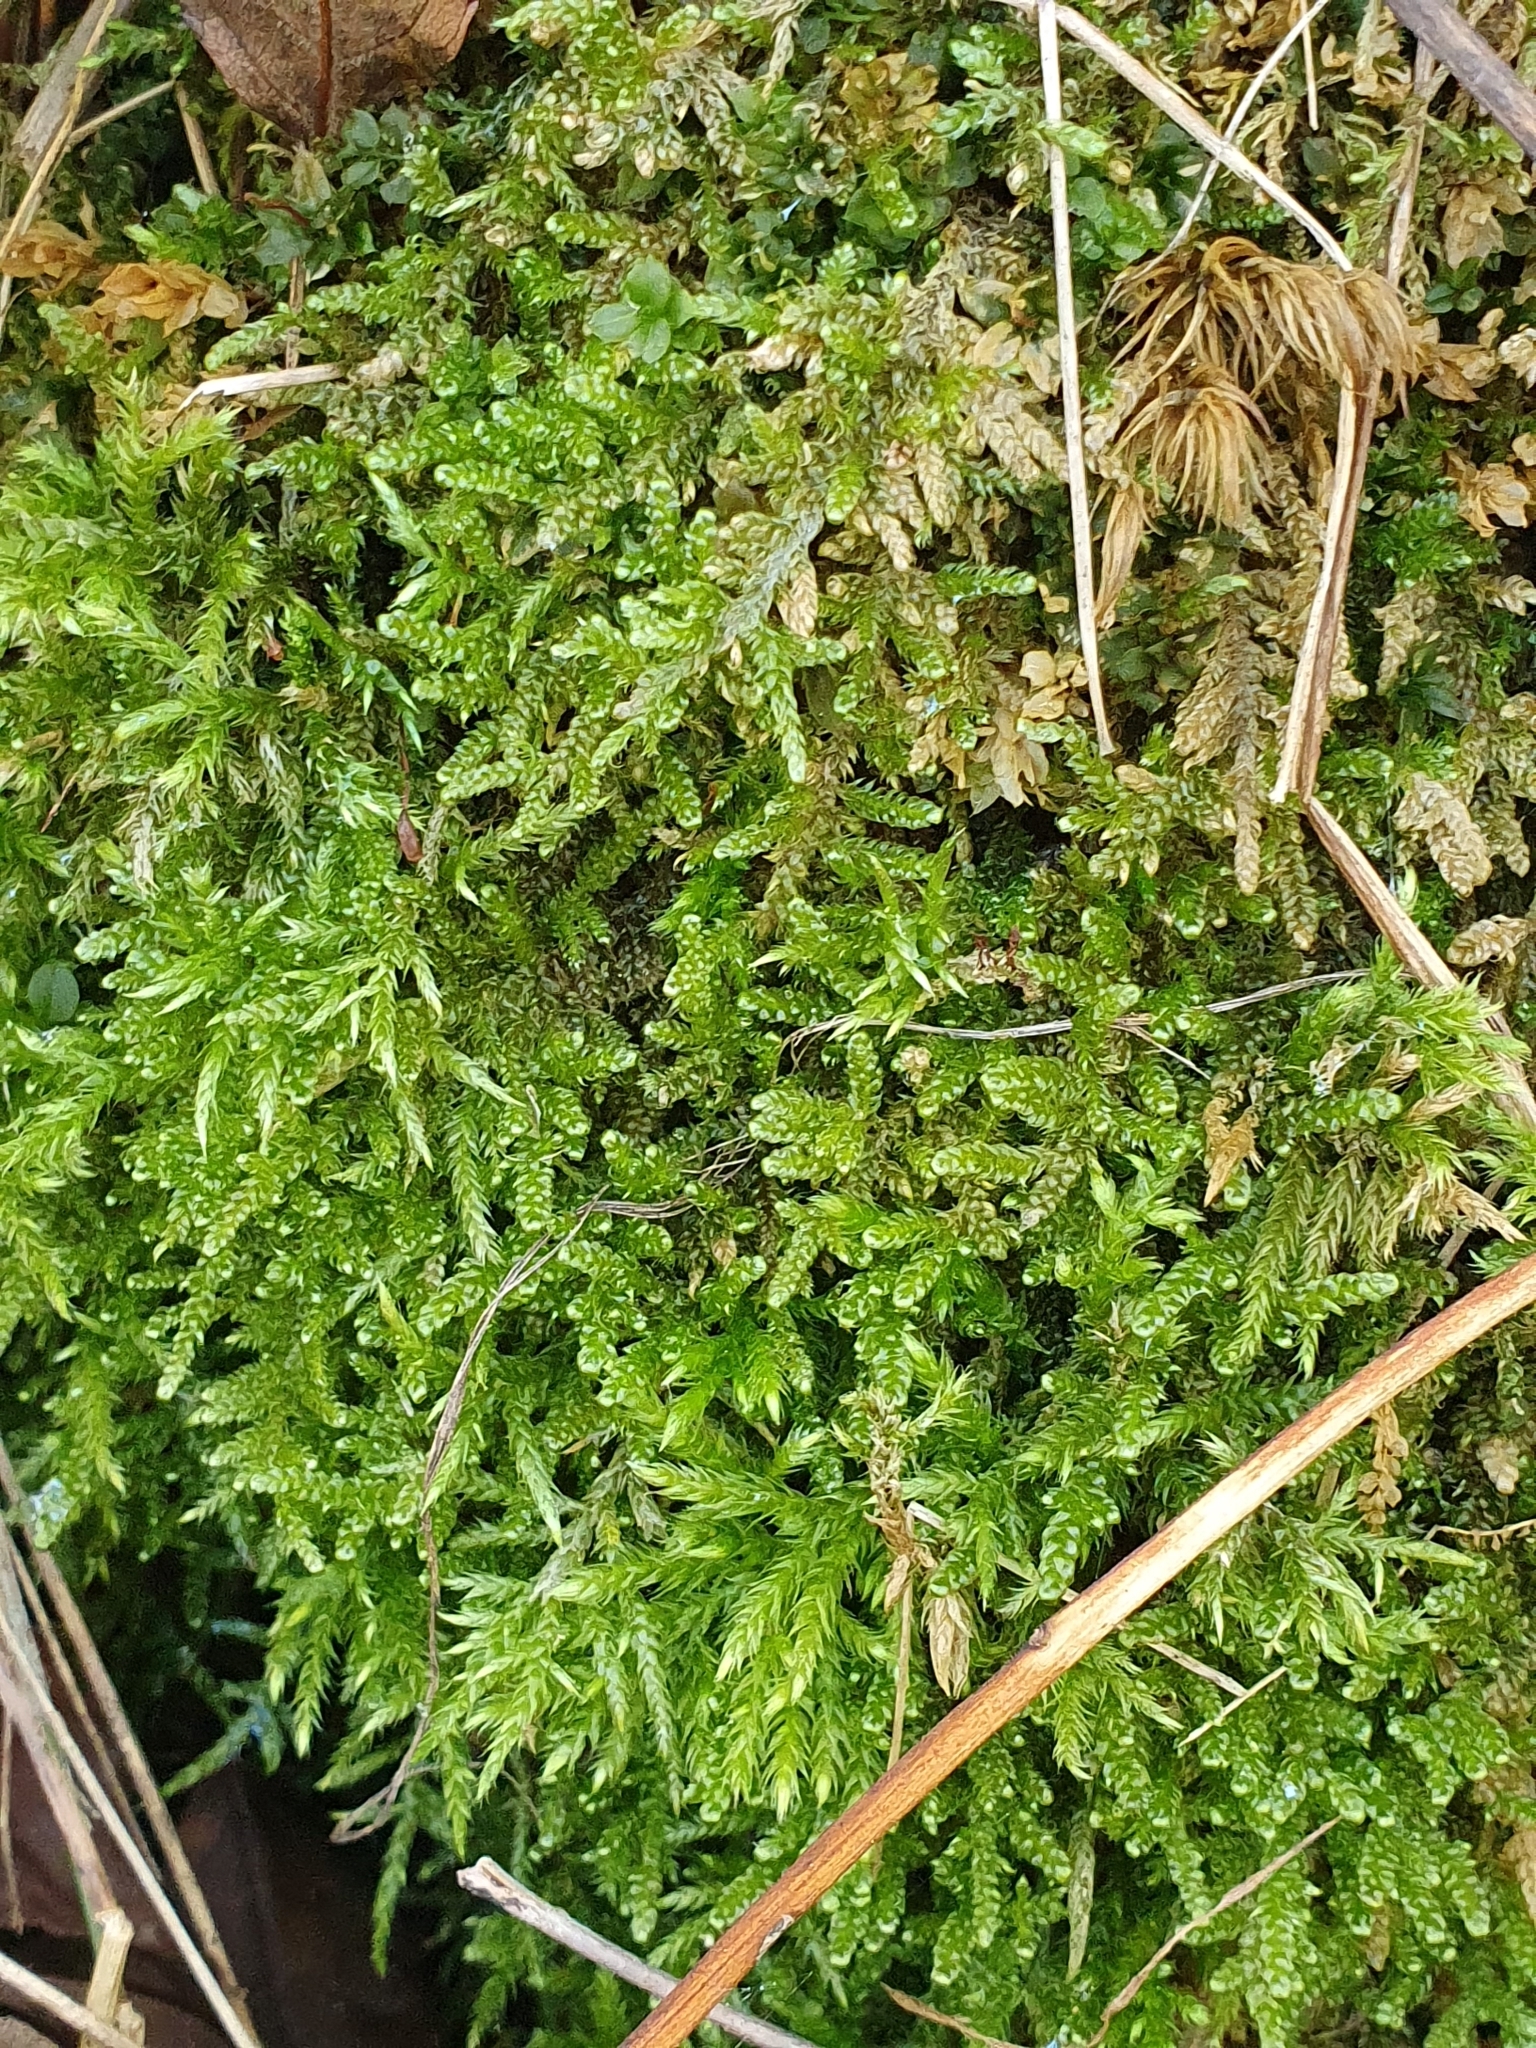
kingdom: Plantae
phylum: Bryophyta
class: Bryopsida
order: Hypnales
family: Hypnaceae
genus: Hypnum
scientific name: Hypnum cupressiforme
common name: Cypress-leaved plait-moss
